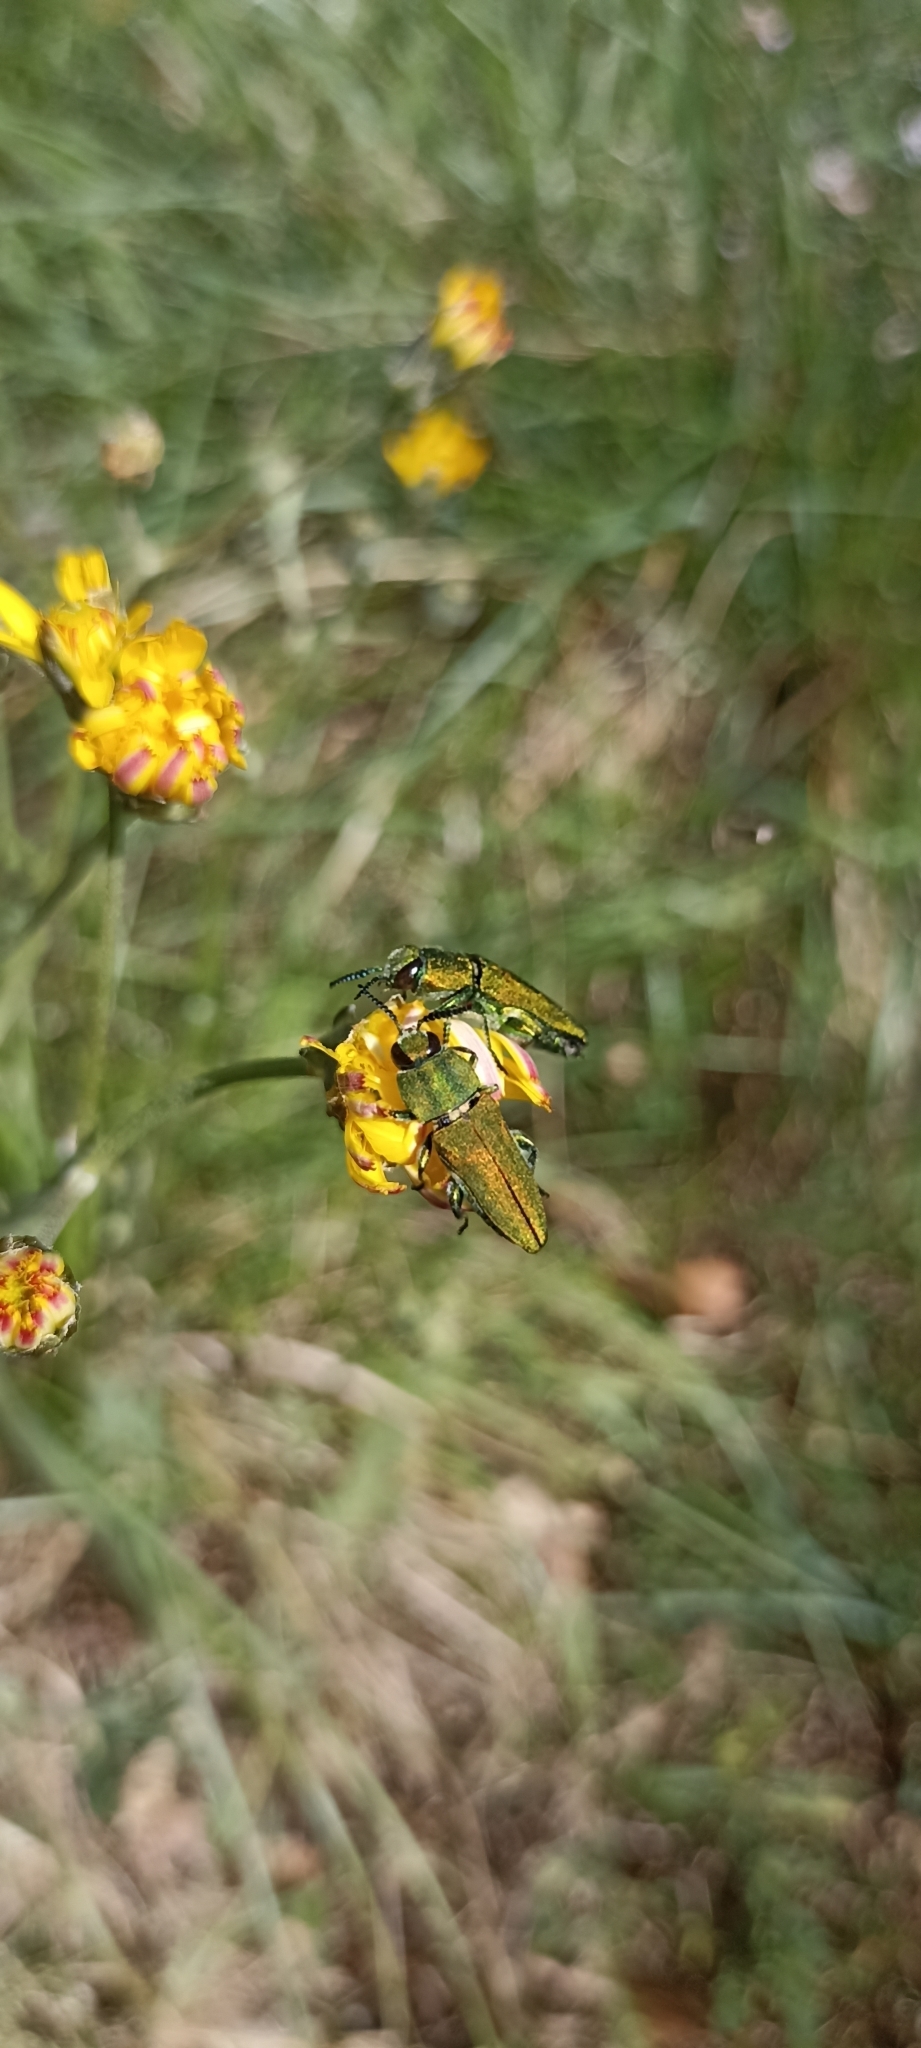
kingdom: Animalia
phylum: Arthropoda
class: Insecta
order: Coleoptera
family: Buprestidae
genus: Anthaxia
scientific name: Anthaxia hungarica
